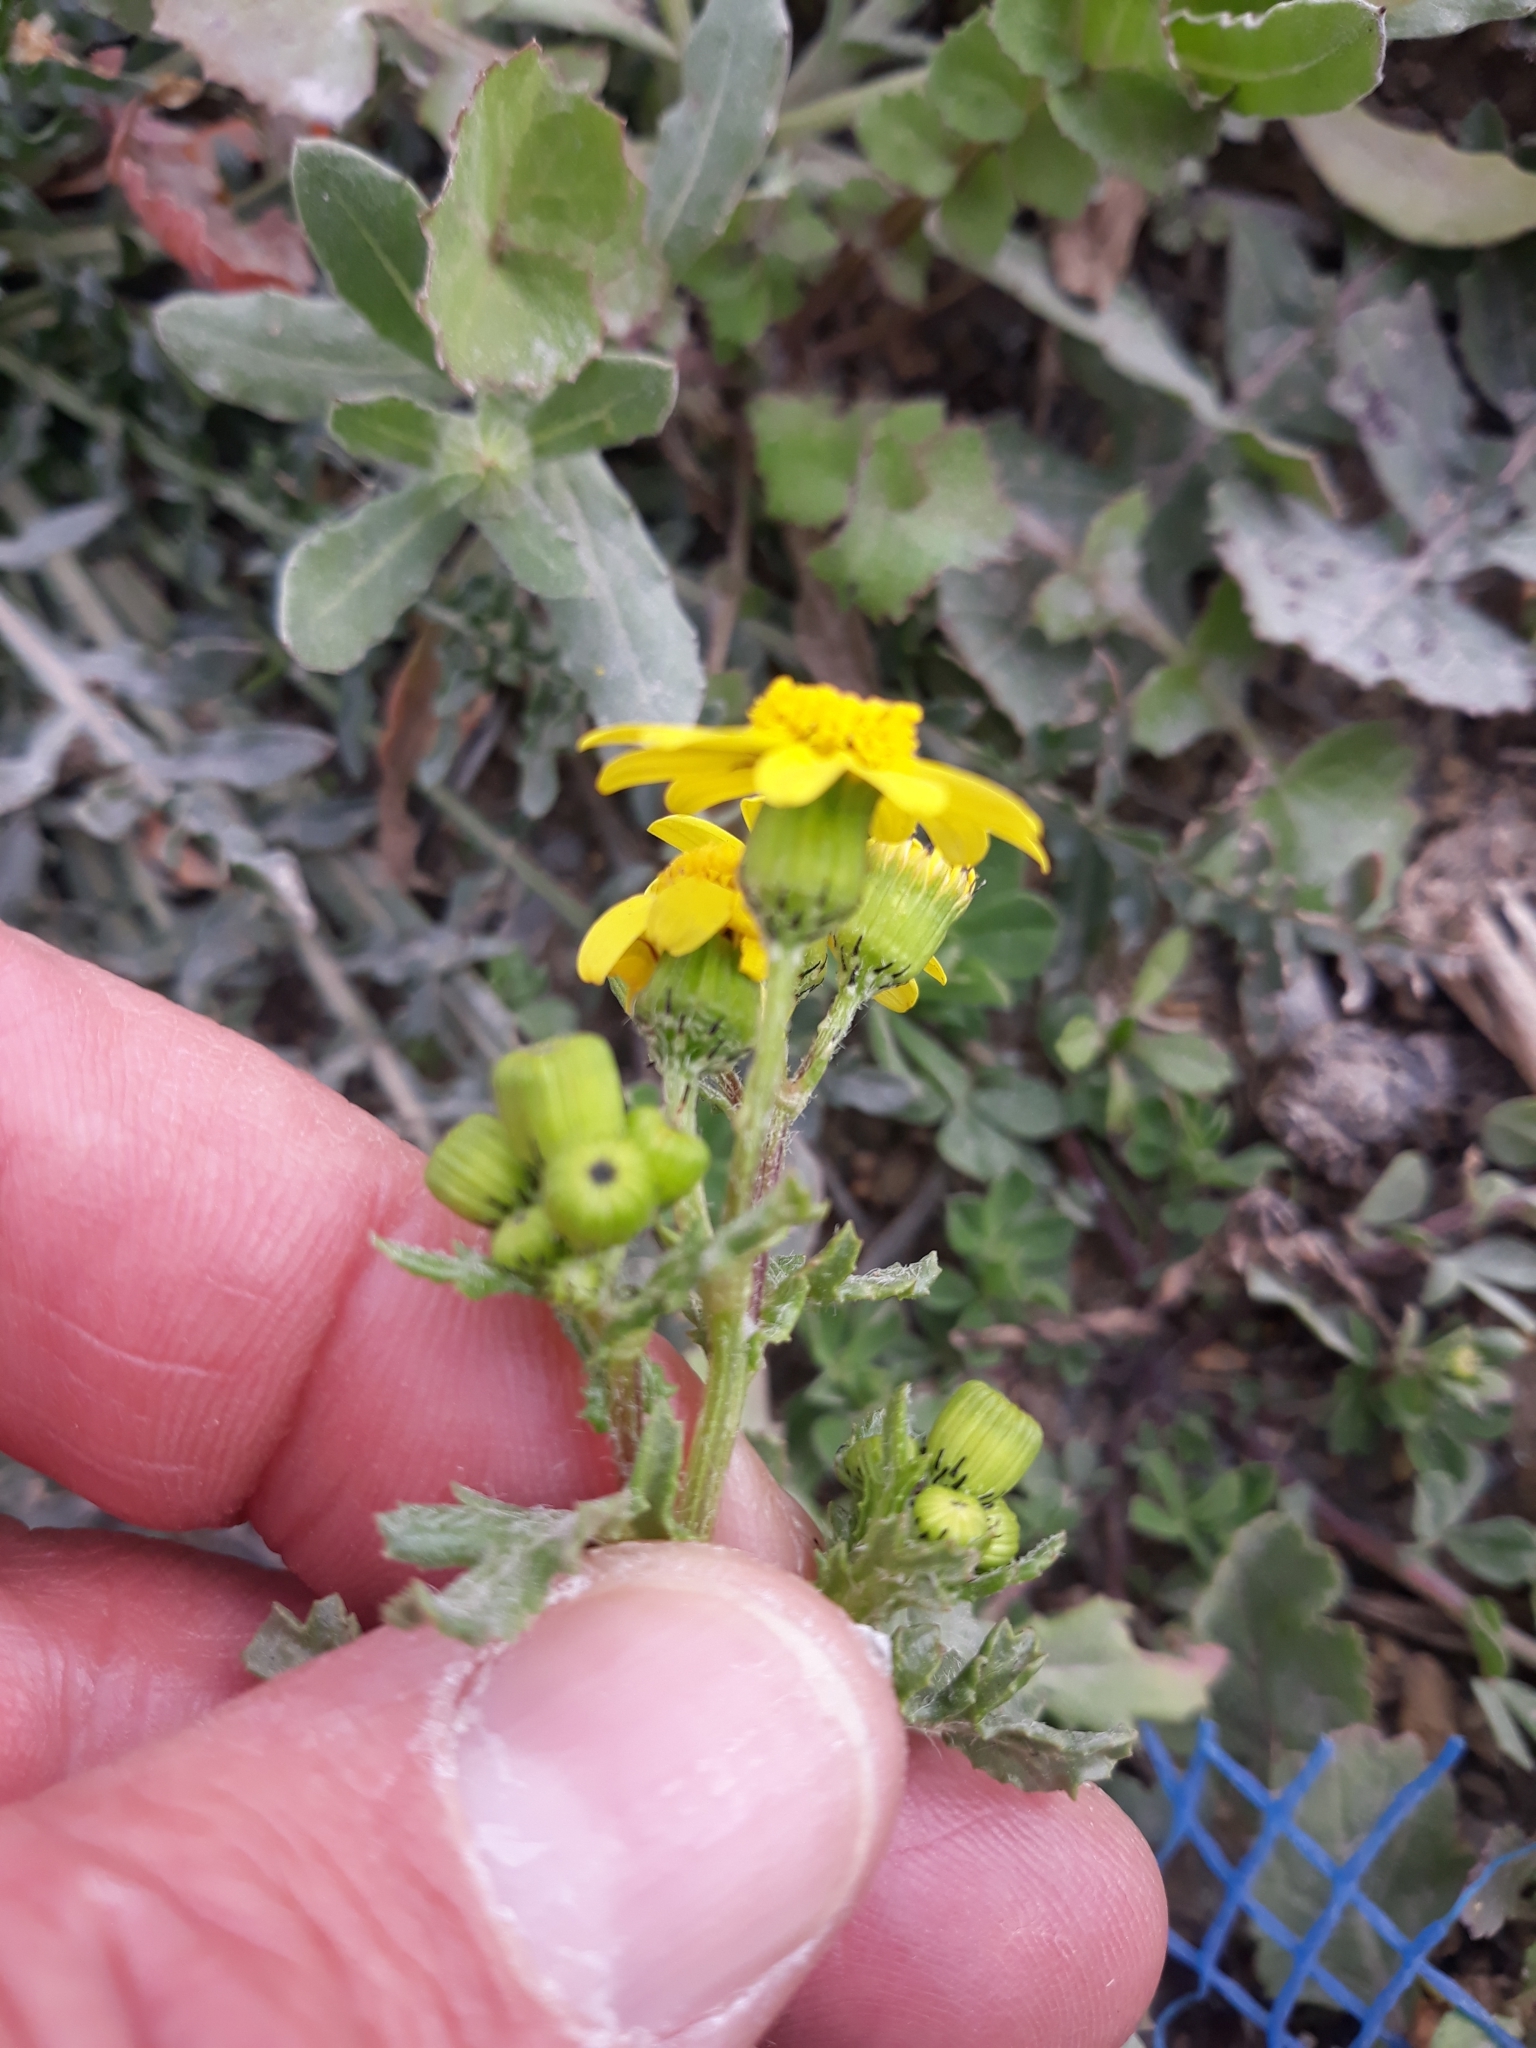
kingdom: Plantae
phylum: Tracheophyta
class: Magnoliopsida
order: Asterales
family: Asteraceae
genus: Senecio
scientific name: Senecio leucanthemifolius
